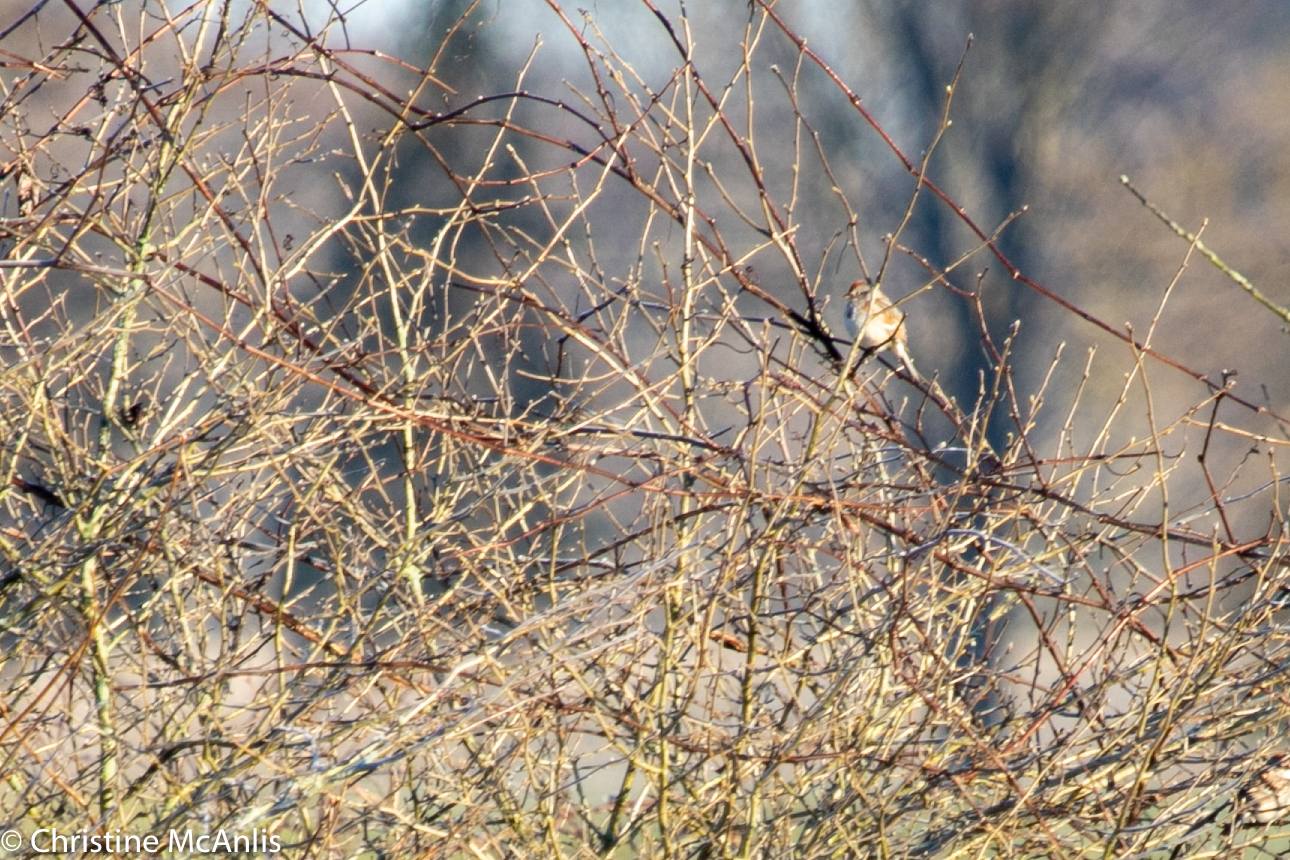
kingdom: Animalia
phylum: Chordata
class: Aves
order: Passeriformes
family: Passerellidae
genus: Spizelloides
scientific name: Spizelloides arborea
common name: American tree sparrow
